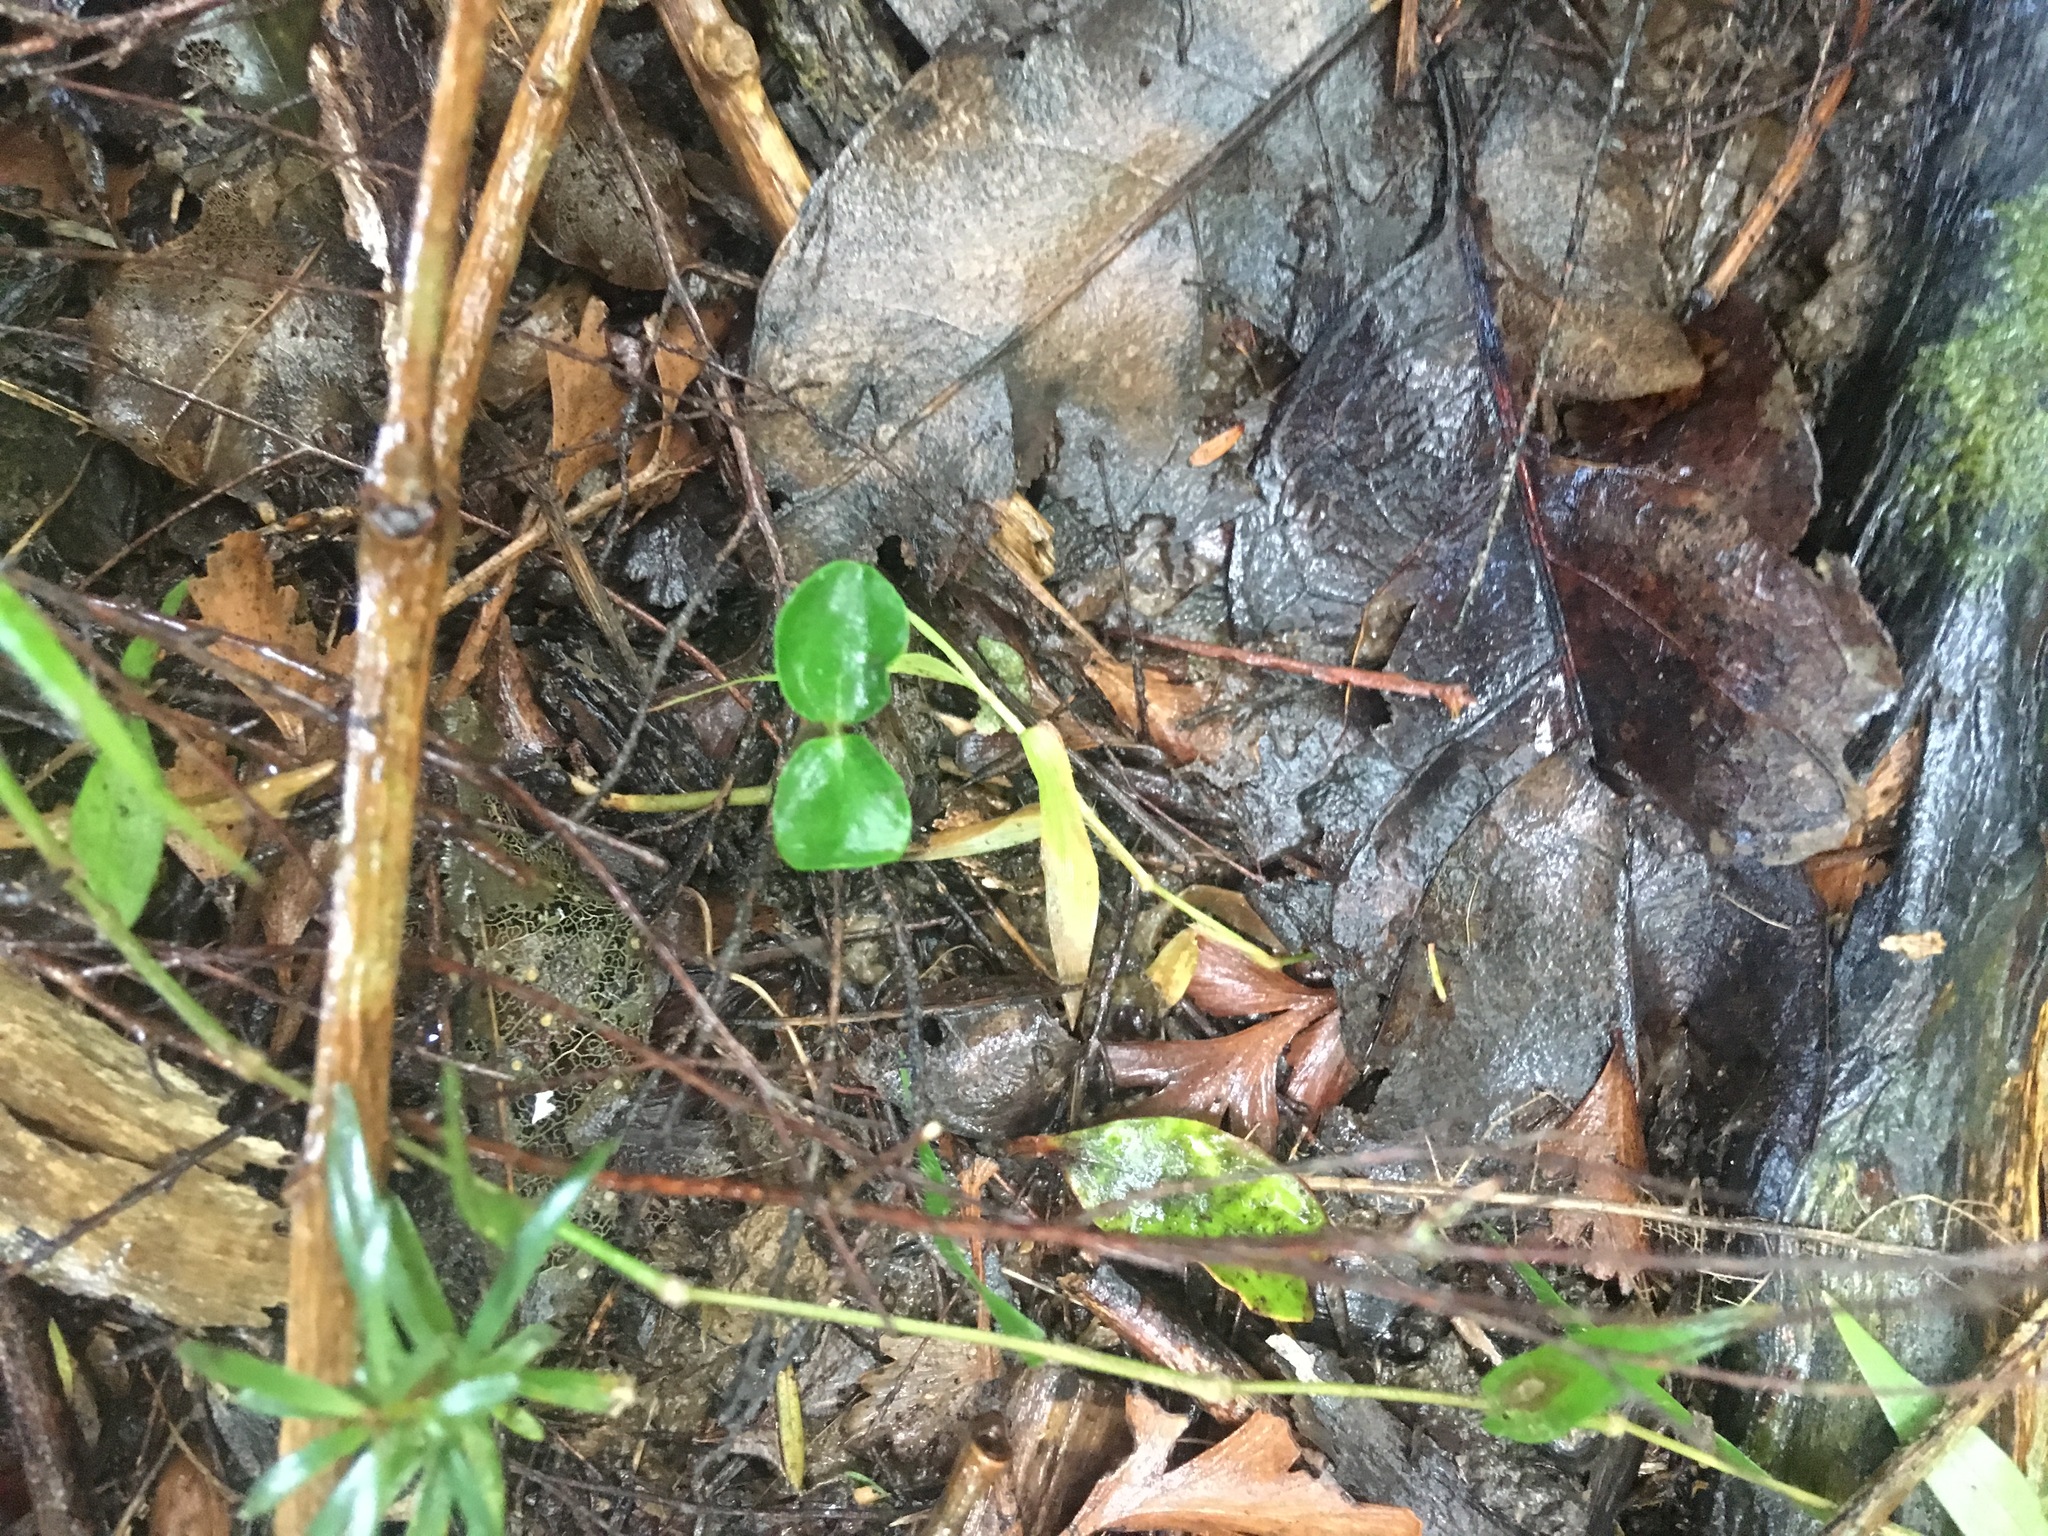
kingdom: Plantae
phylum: Tracheophyta
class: Magnoliopsida
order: Lamiales
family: Oleaceae
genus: Ligustrum
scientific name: Ligustrum sinense
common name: Chinese privet
